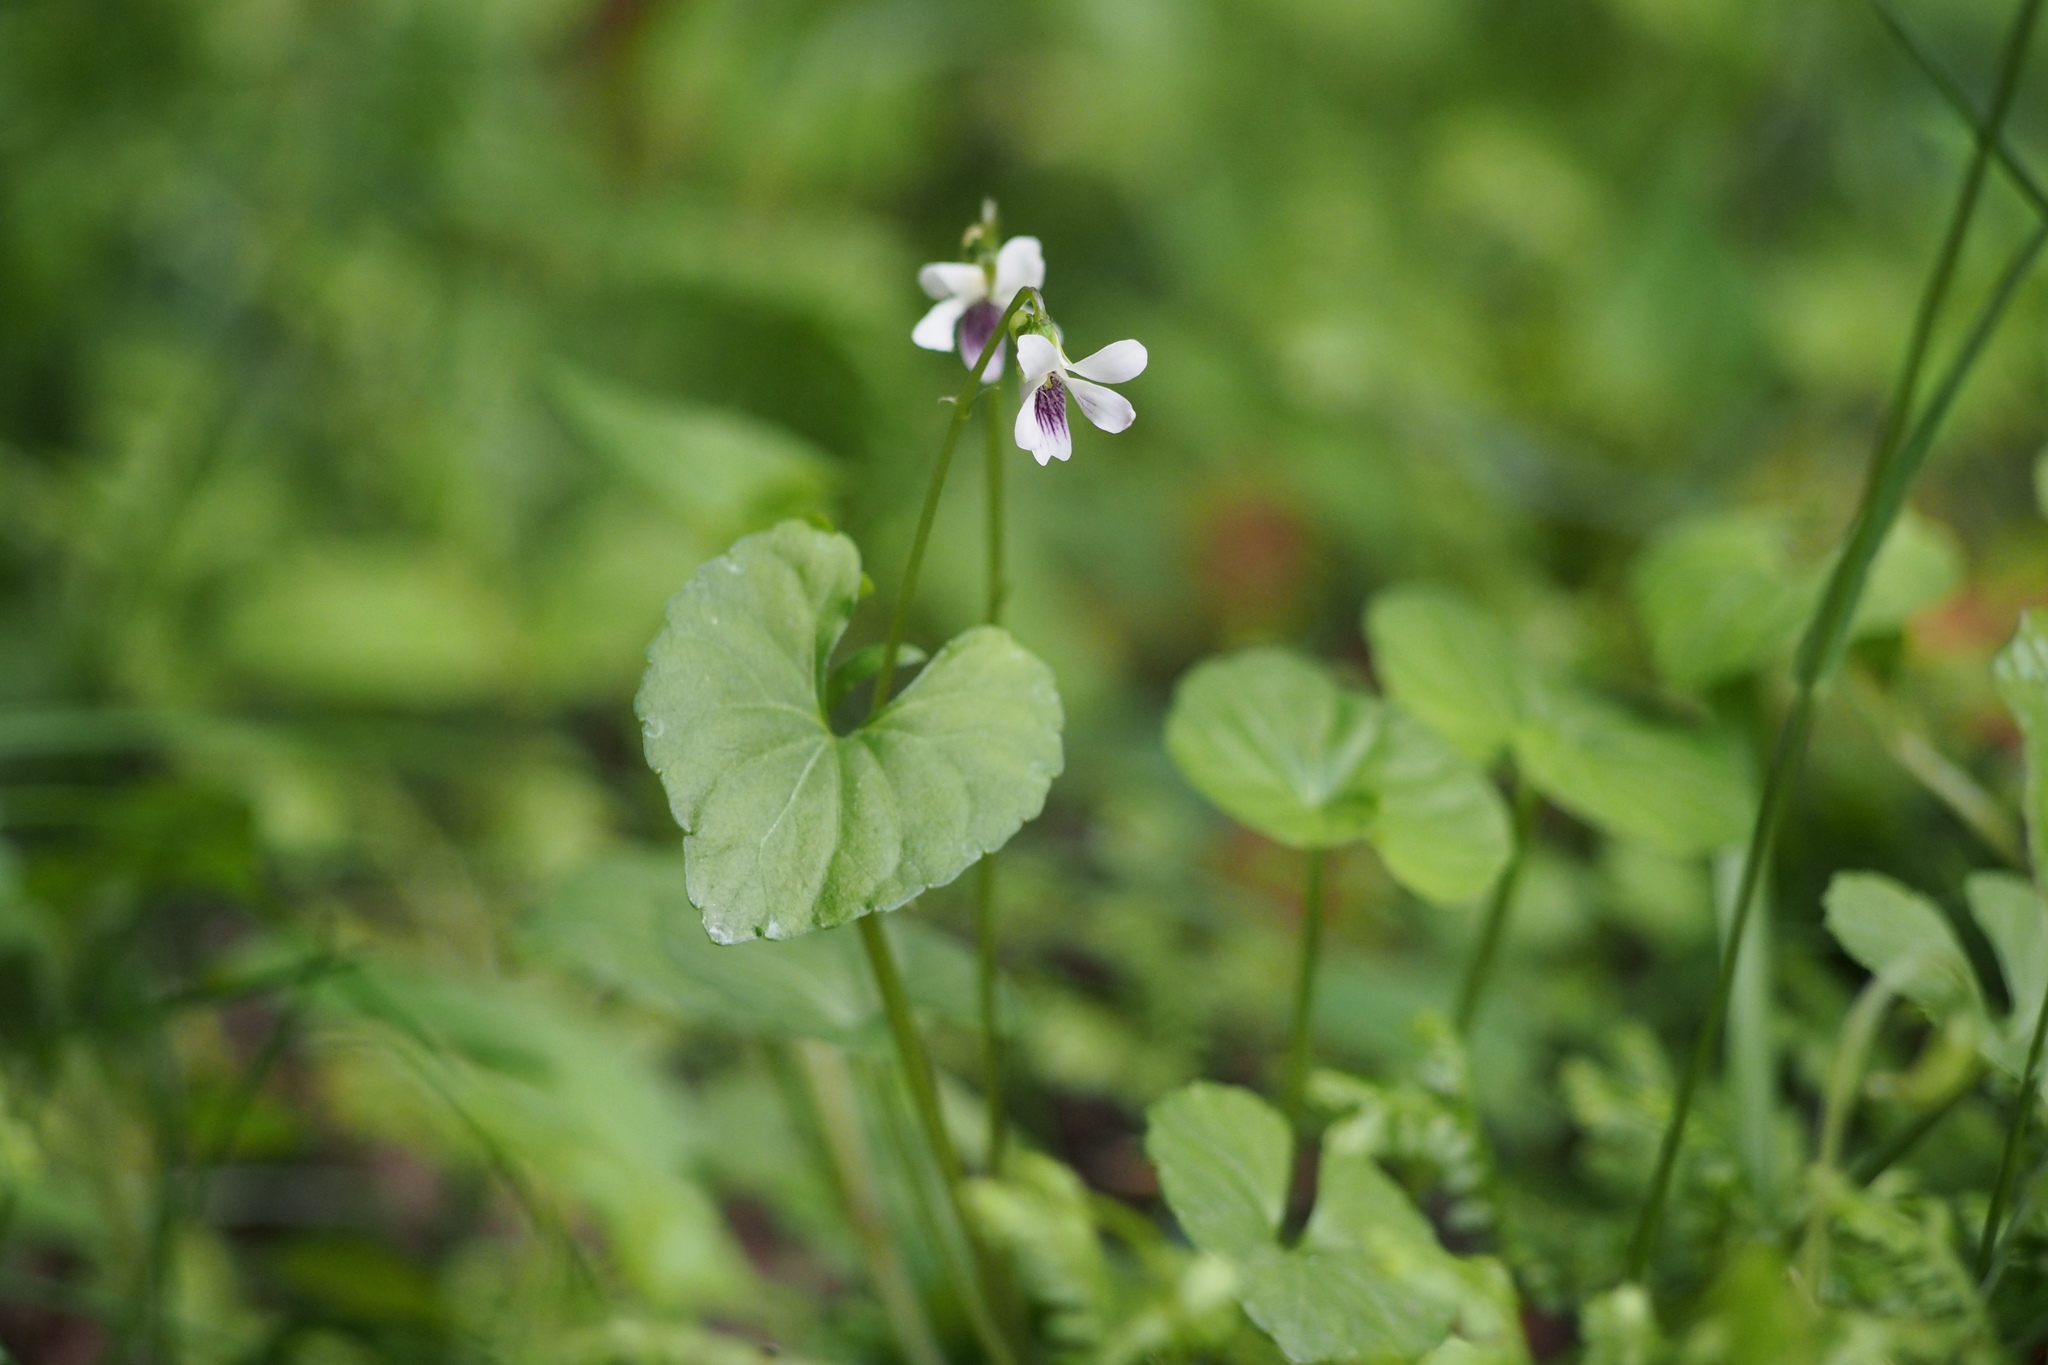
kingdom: Plantae
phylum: Tracheophyta
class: Magnoliopsida
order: Malpighiales
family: Violaceae
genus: Viola
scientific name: Viola
